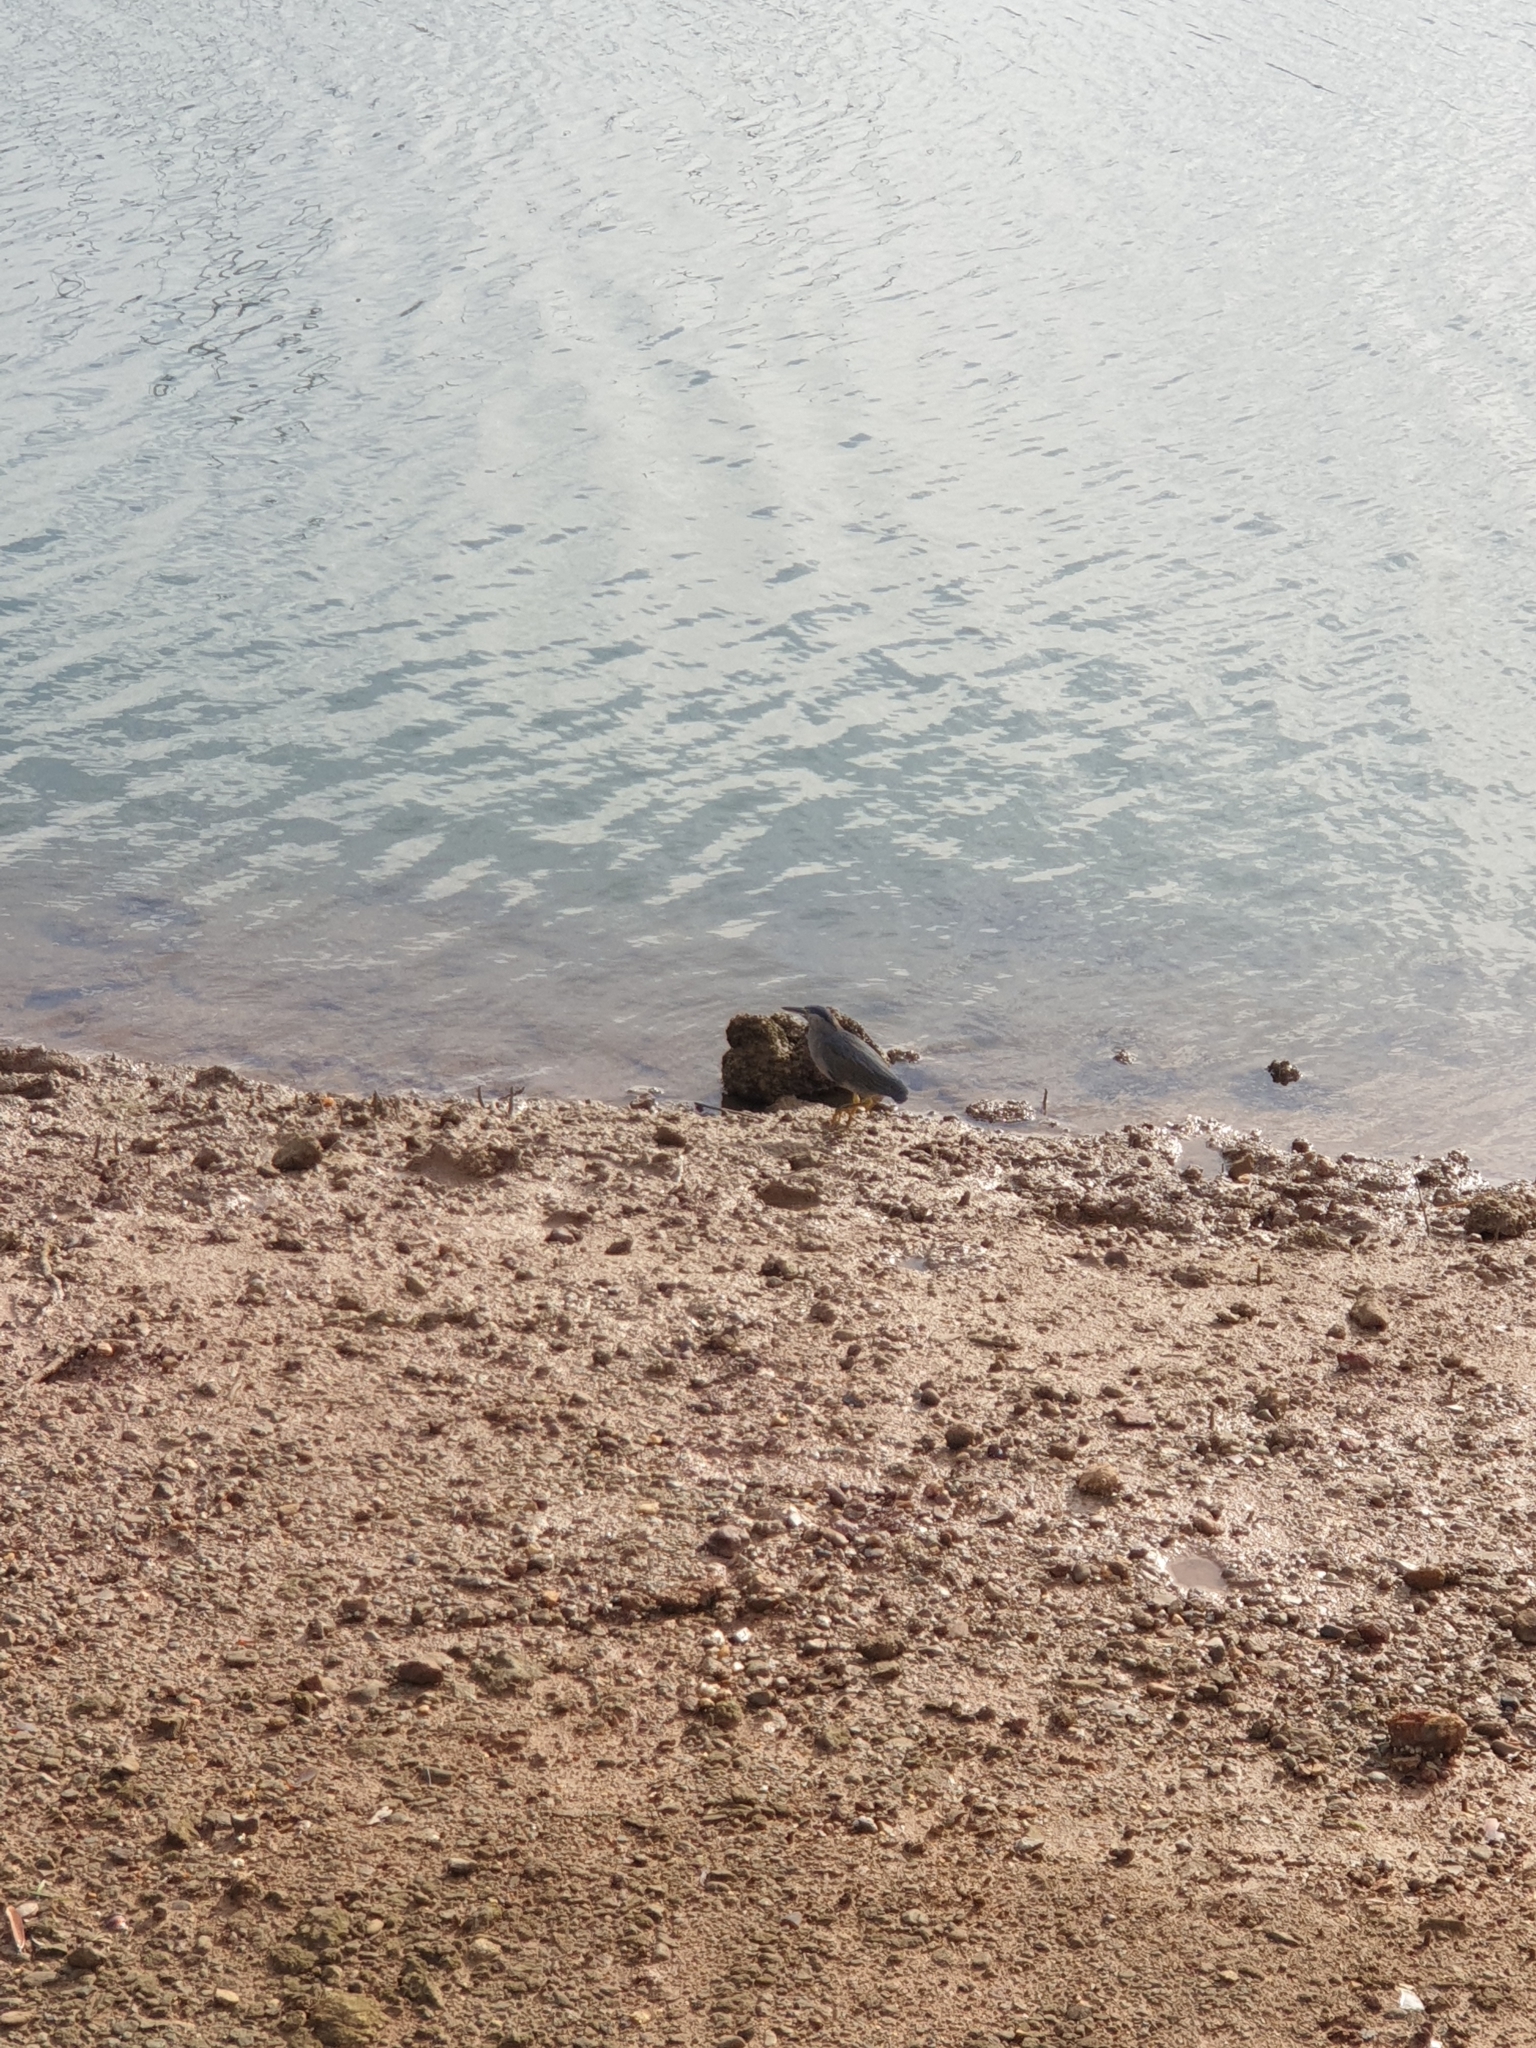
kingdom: Animalia
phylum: Chordata
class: Aves
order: Pelecaniformes
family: Ardeidae
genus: Butorides
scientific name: Butorides striata
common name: Striated heron
